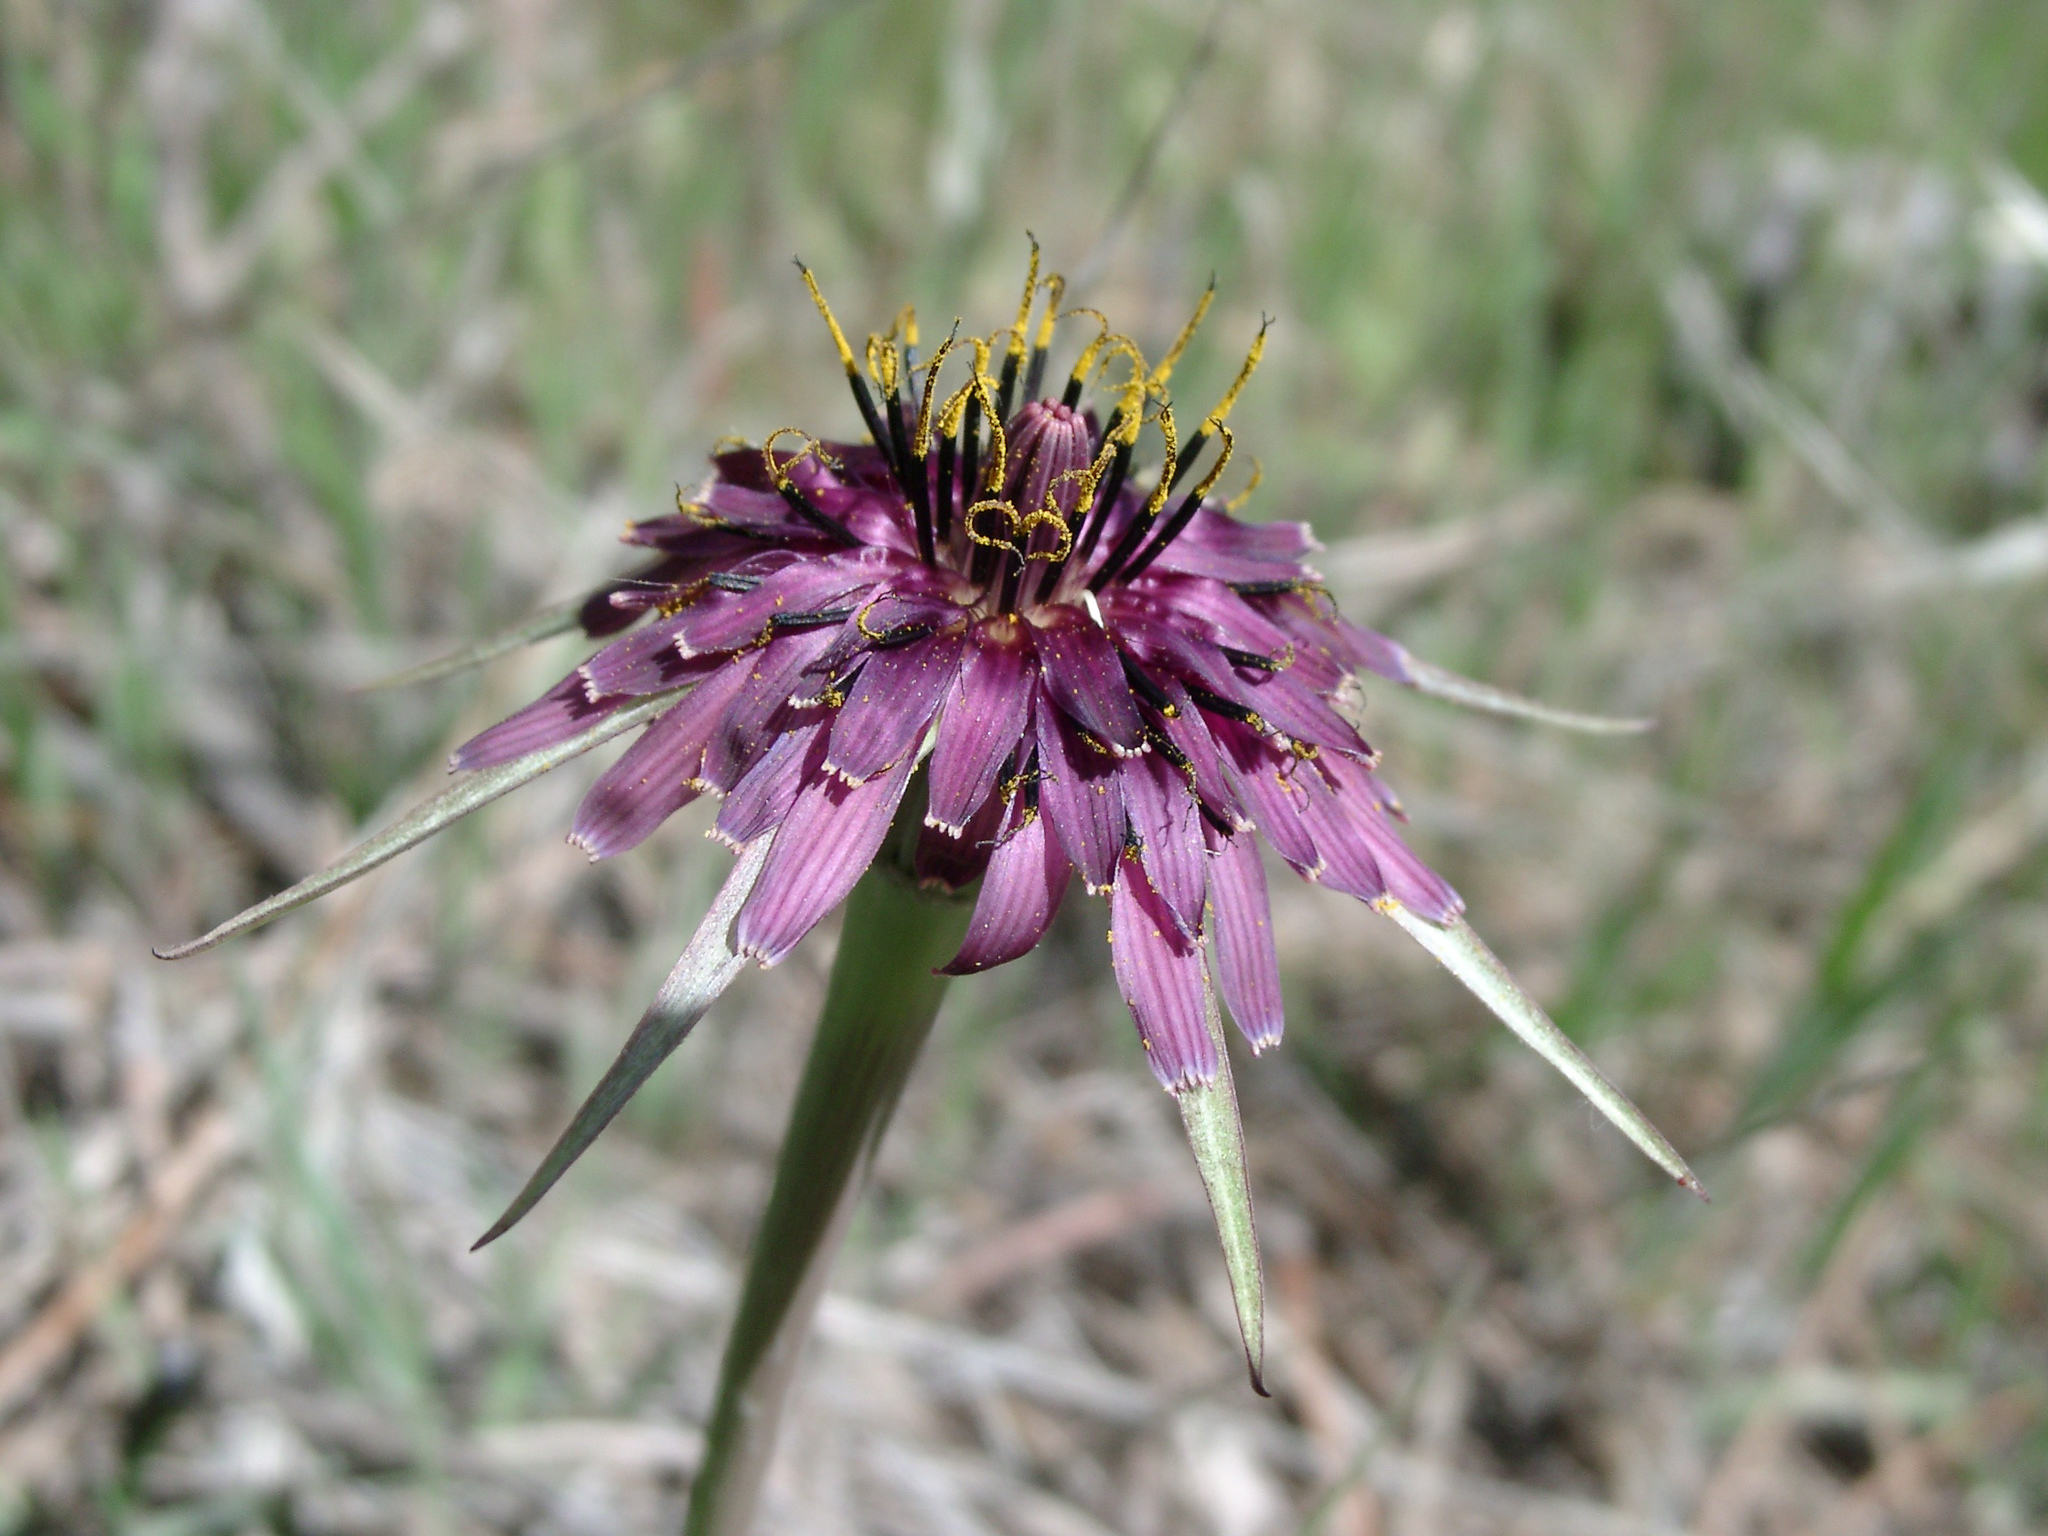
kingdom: Plantae
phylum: Tracheophyta
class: Magnoliopsida
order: Asterales
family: Asteraceae
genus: Tragopogon
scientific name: Tragopogon porrifolius
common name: Salsify
